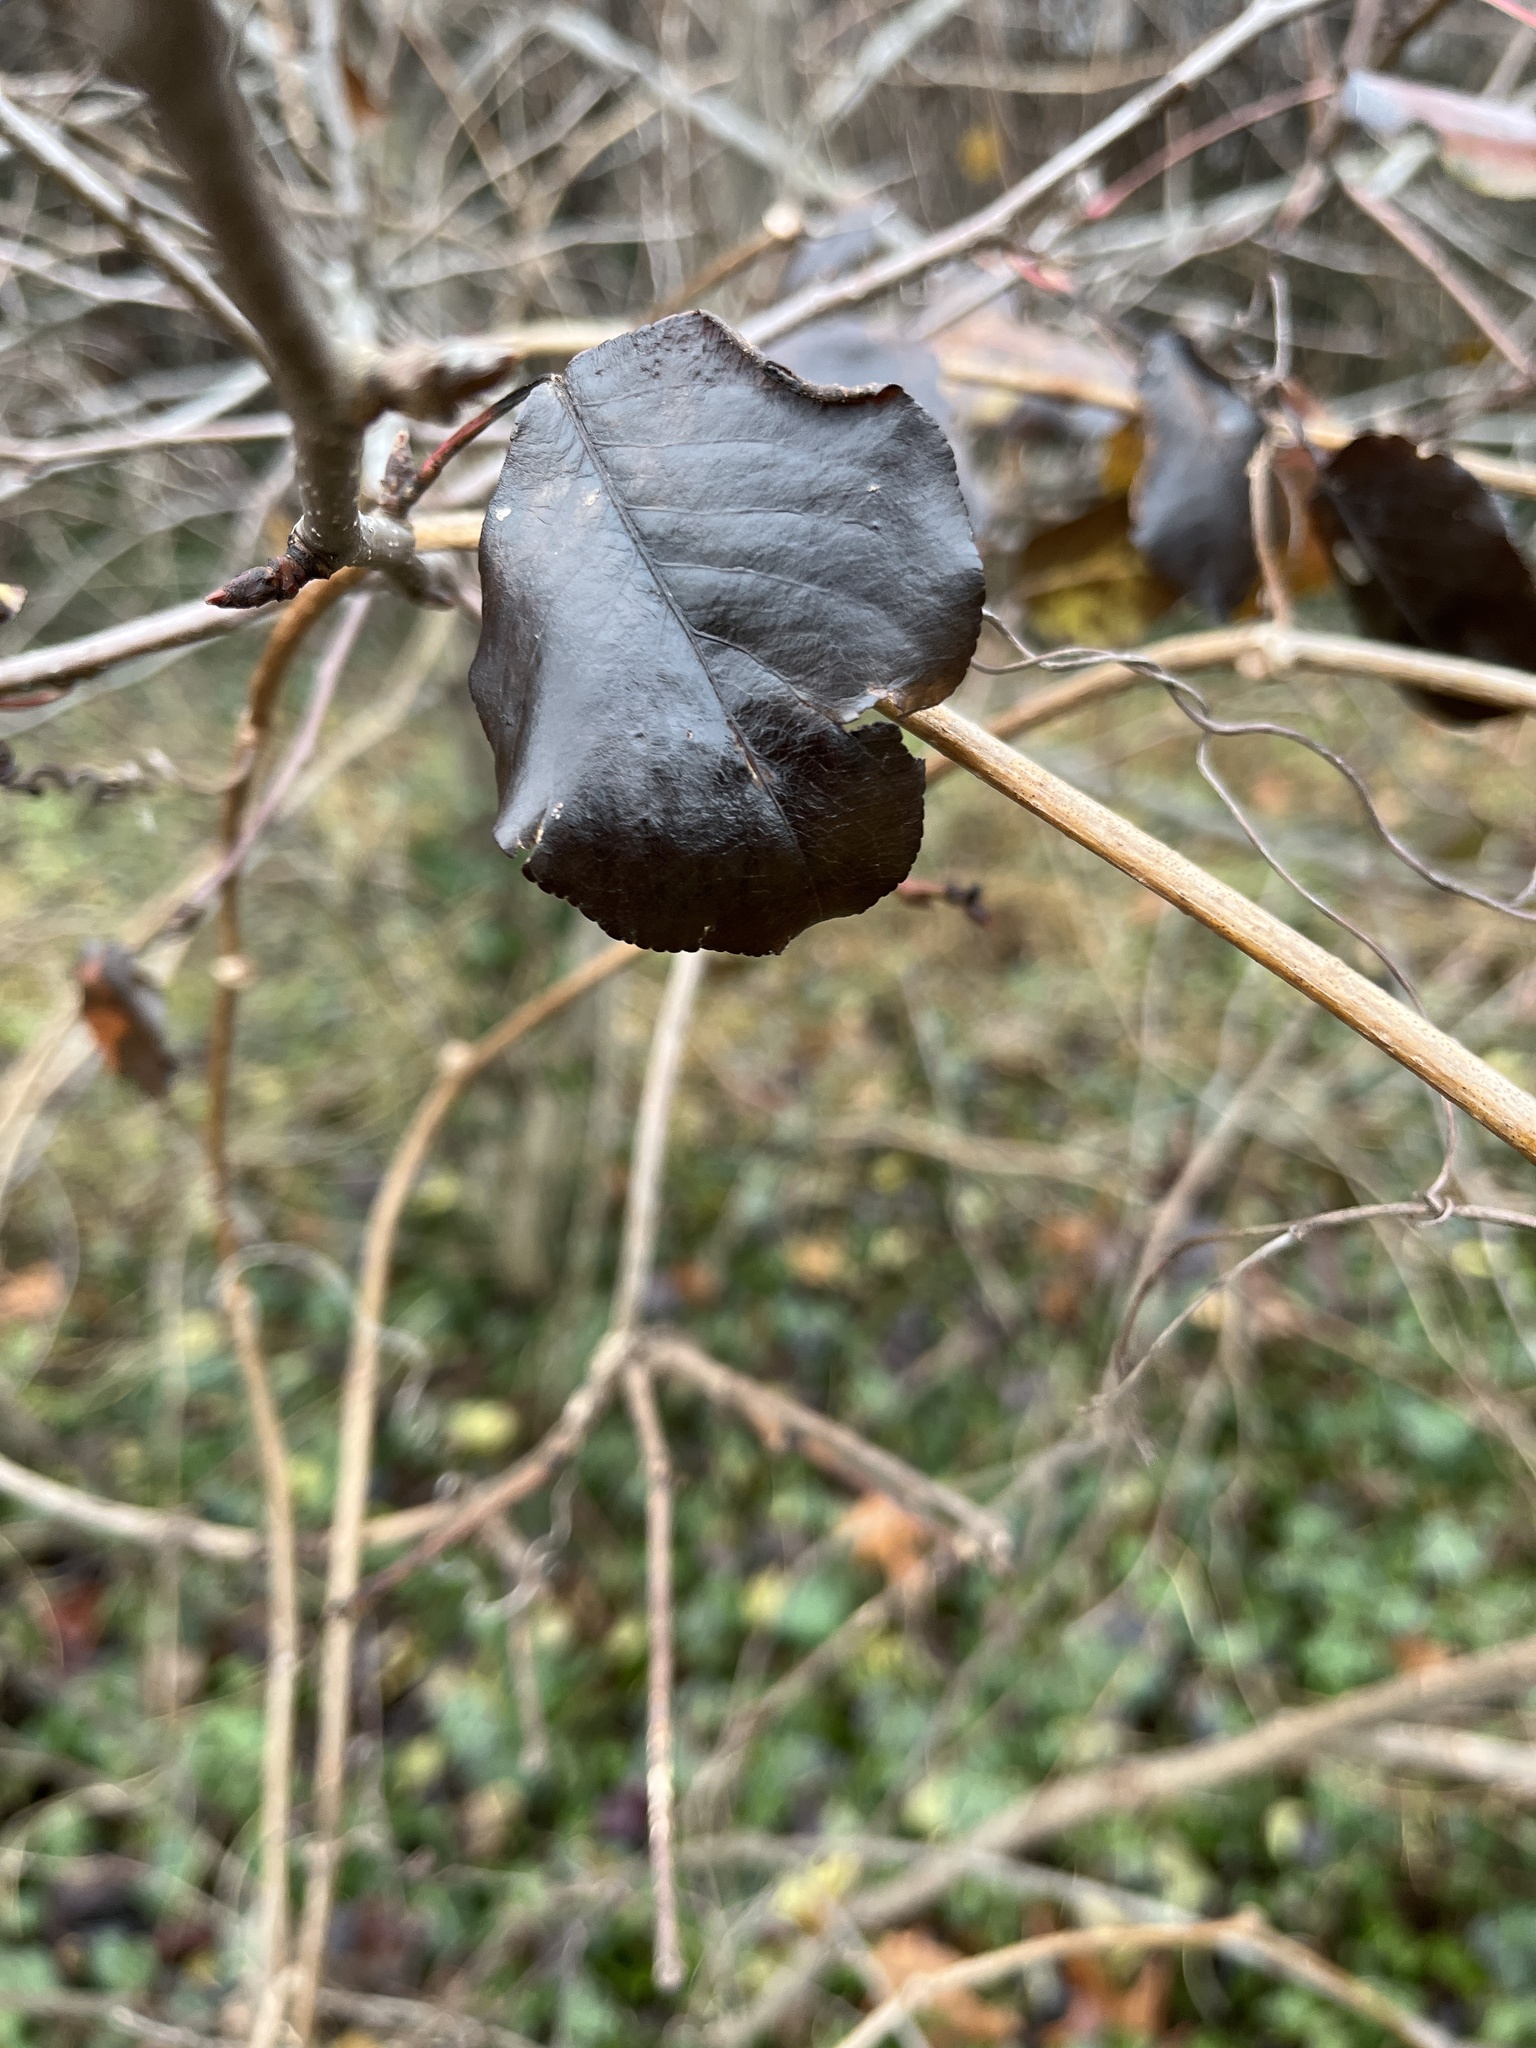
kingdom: Plantae
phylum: Tracheophyta
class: Magnoliopsida
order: Rosales
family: Rosaceae
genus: Pyrus
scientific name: Pyrus calleryana
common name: Callery pear
